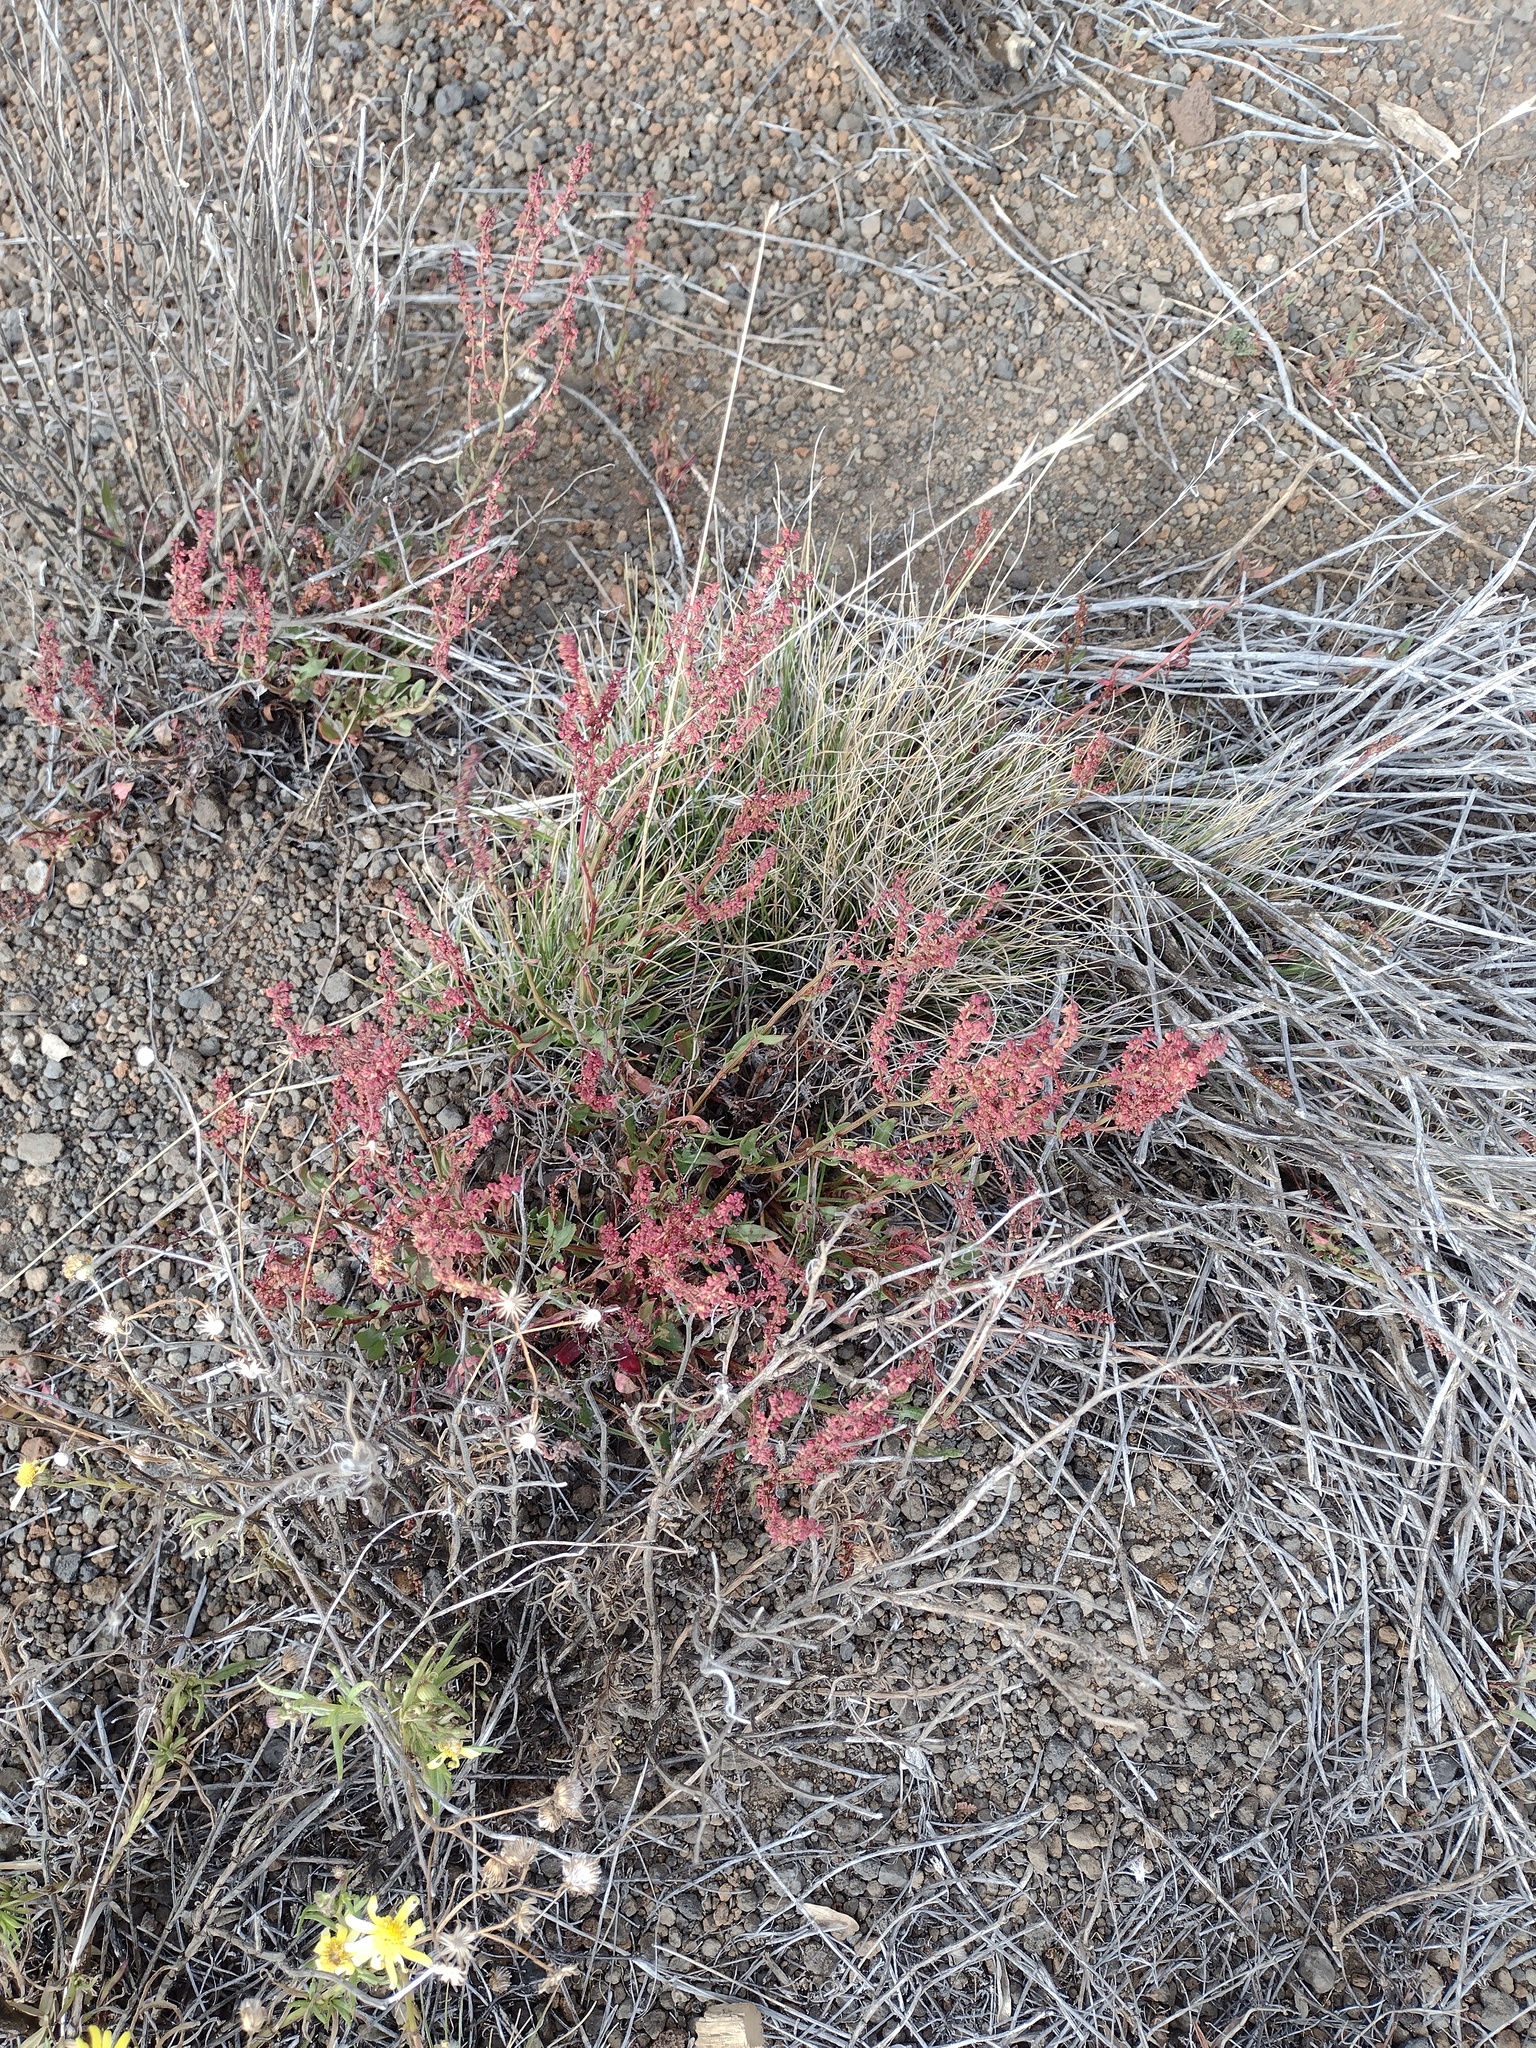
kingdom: Plantae
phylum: Tracheophyta
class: Magnoliopsida
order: Caryophyllales
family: Polygonaceae
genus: Rumex
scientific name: Rumex acetosella
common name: Common sheep sorrel
